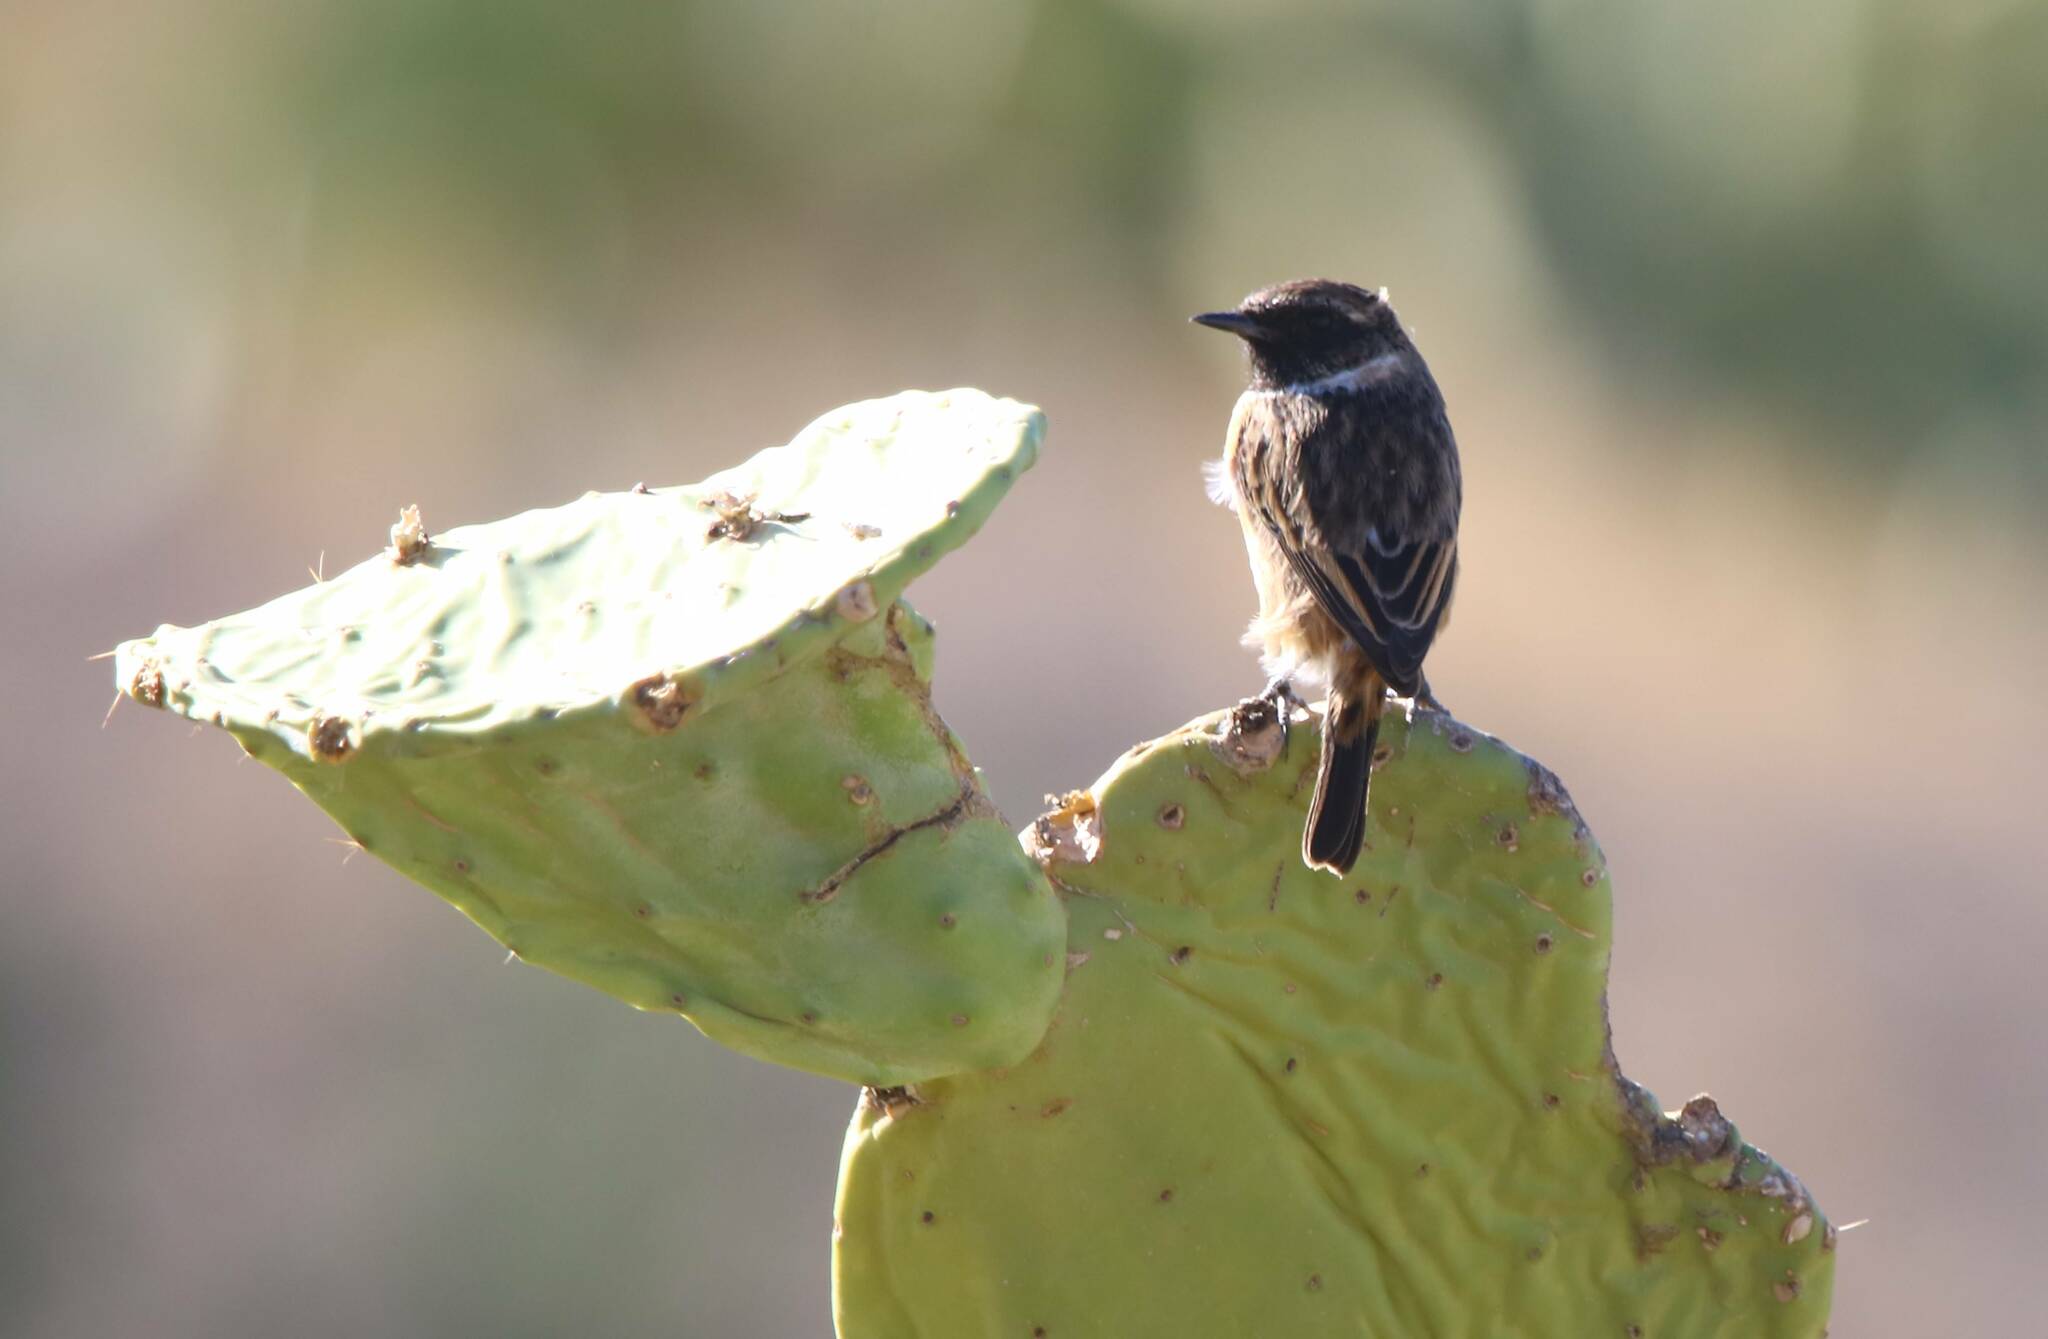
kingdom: Animalia
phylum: Chordata
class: Aves
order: Passeriformes
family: Muscicapidae
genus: Saxicola
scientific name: Saxicola rubicola
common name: European stonechat
